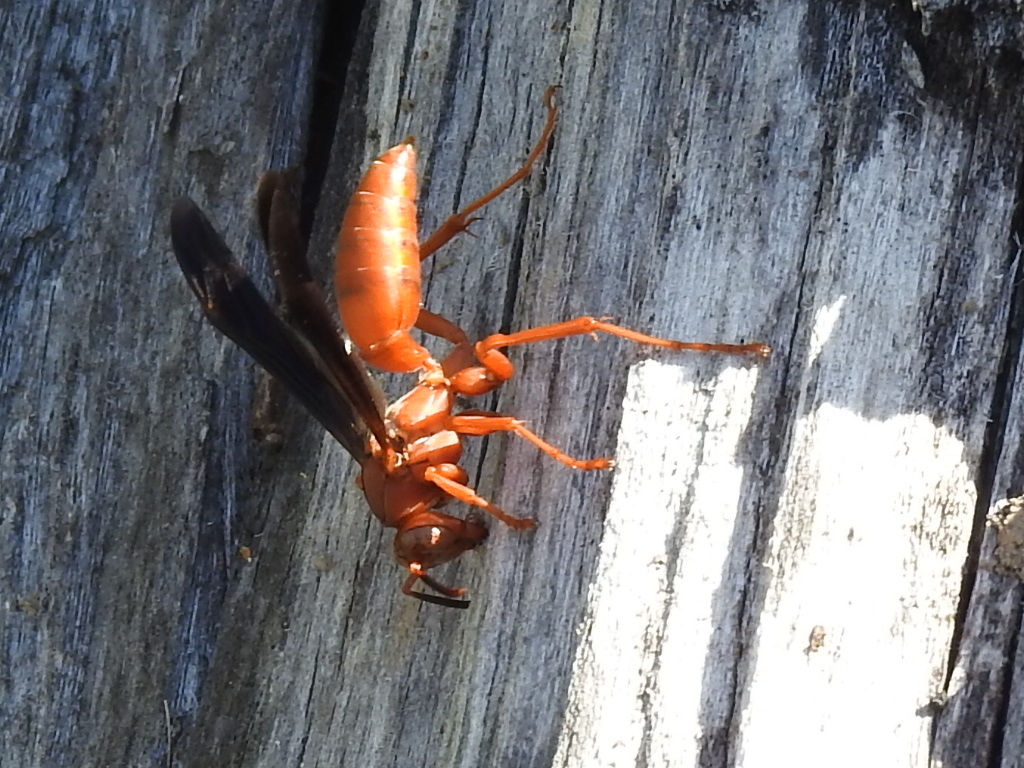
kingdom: Animalia
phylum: Arthropoda
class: Insecta
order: Hymenoptera
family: Vespidae
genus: Fuscopolistes
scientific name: Fuscopolistes
